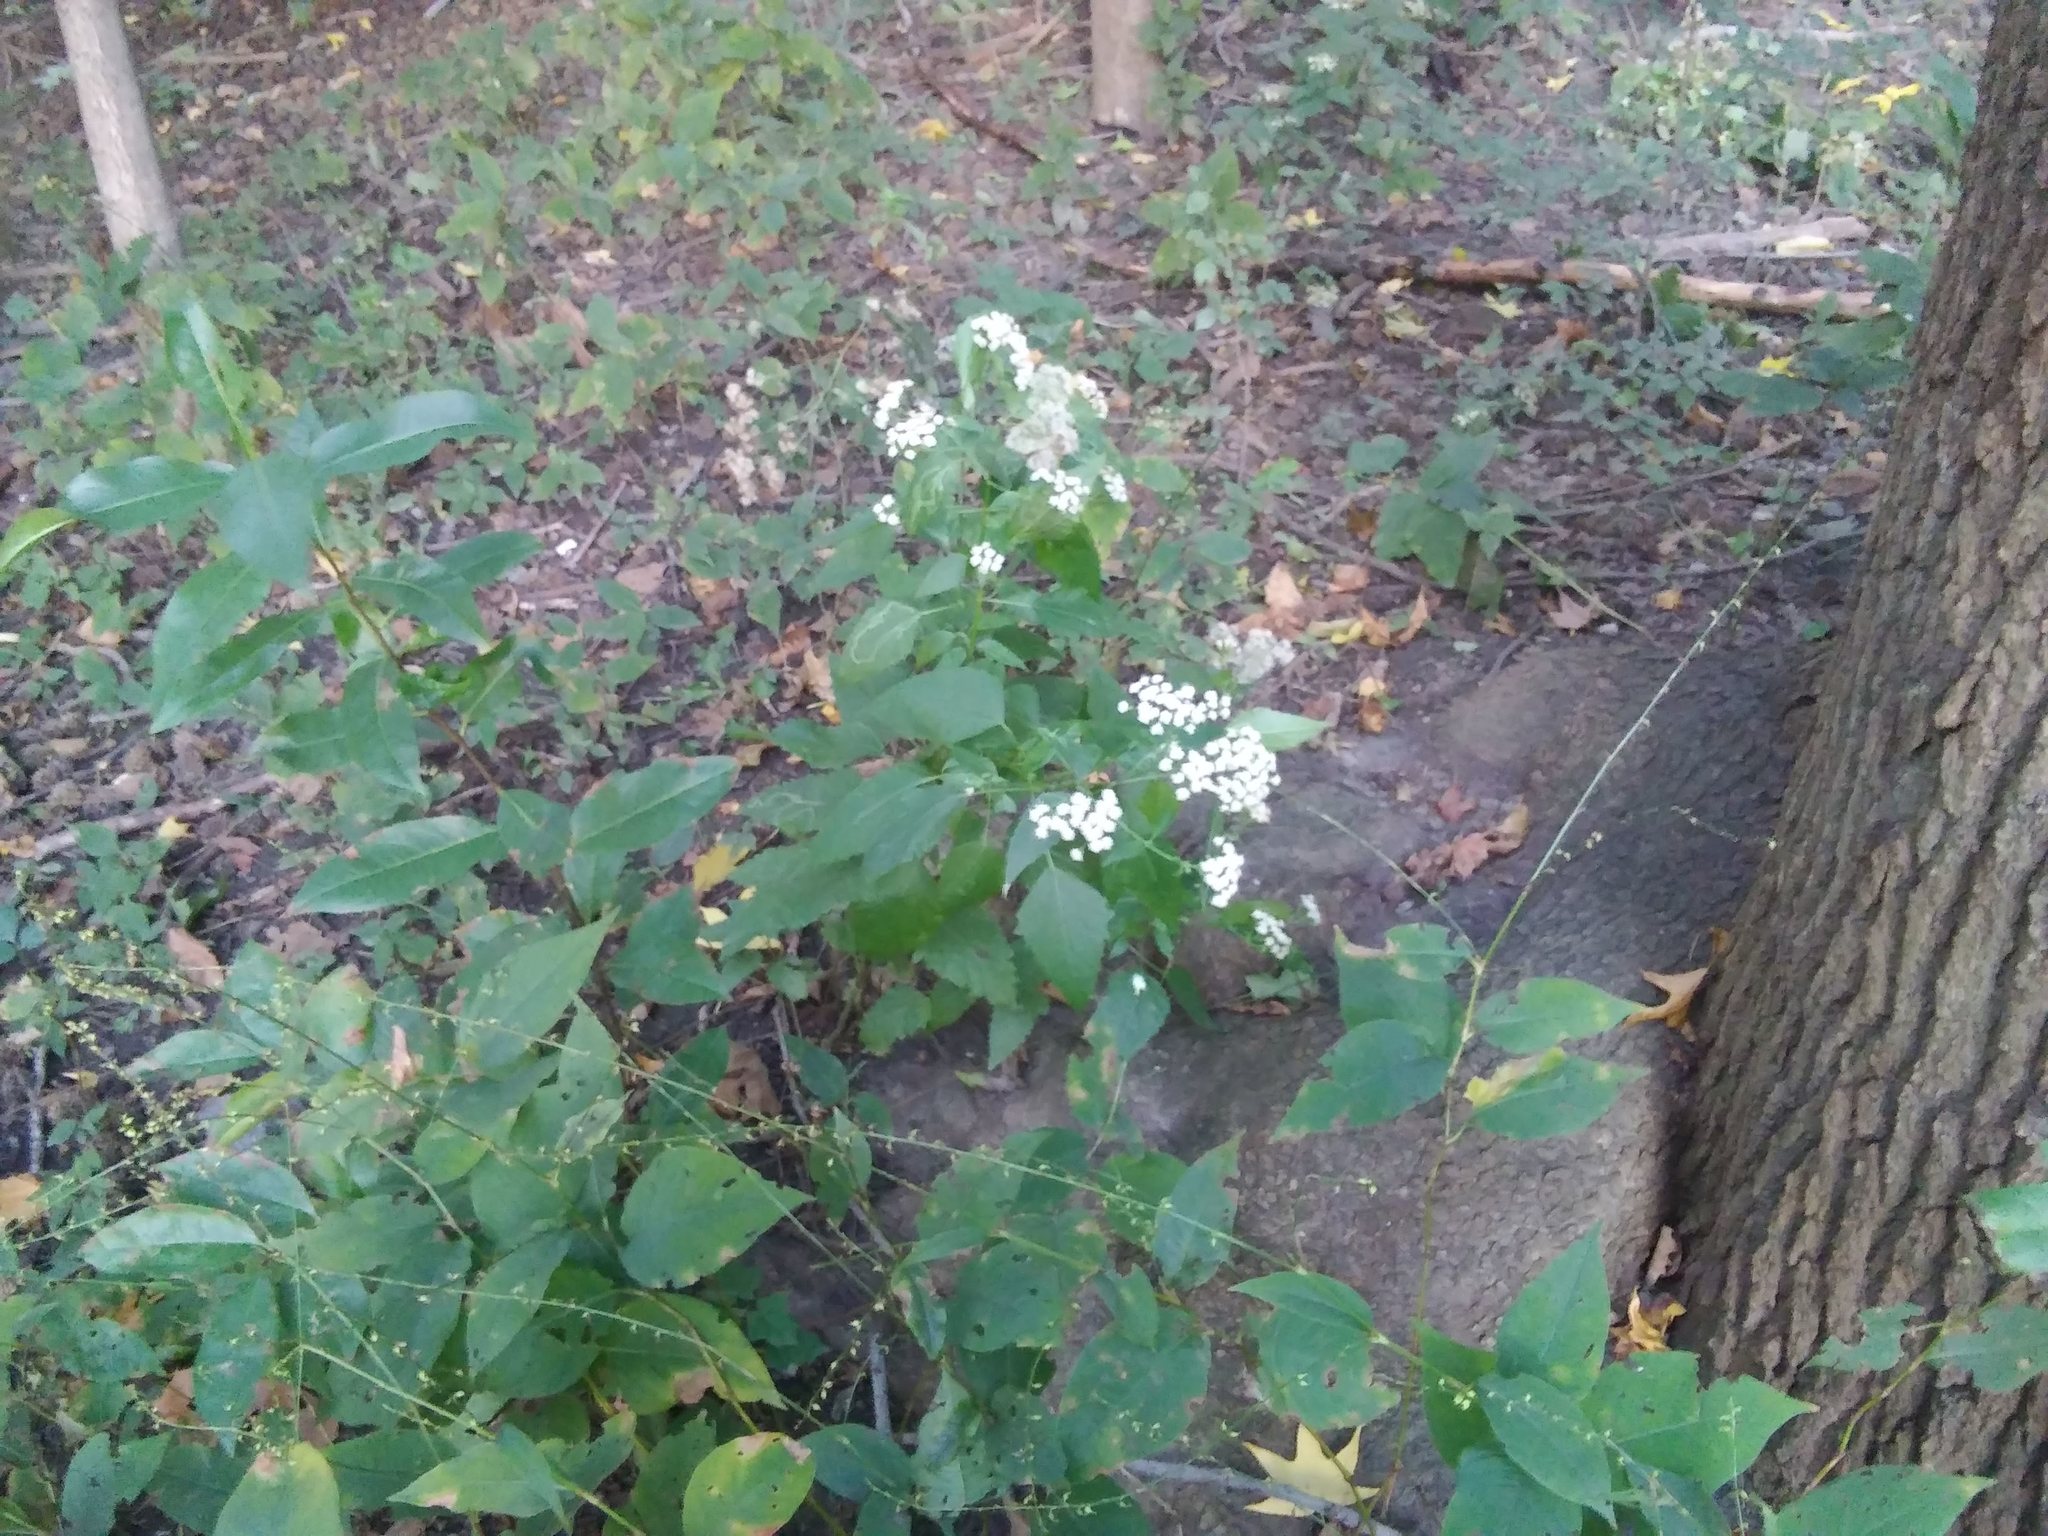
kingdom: Plantae
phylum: Tracheophyta
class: Magnoliopsida
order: Asterales
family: Asteraceae
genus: Ageratina
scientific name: Ageratina altissima
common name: White snakeroot
